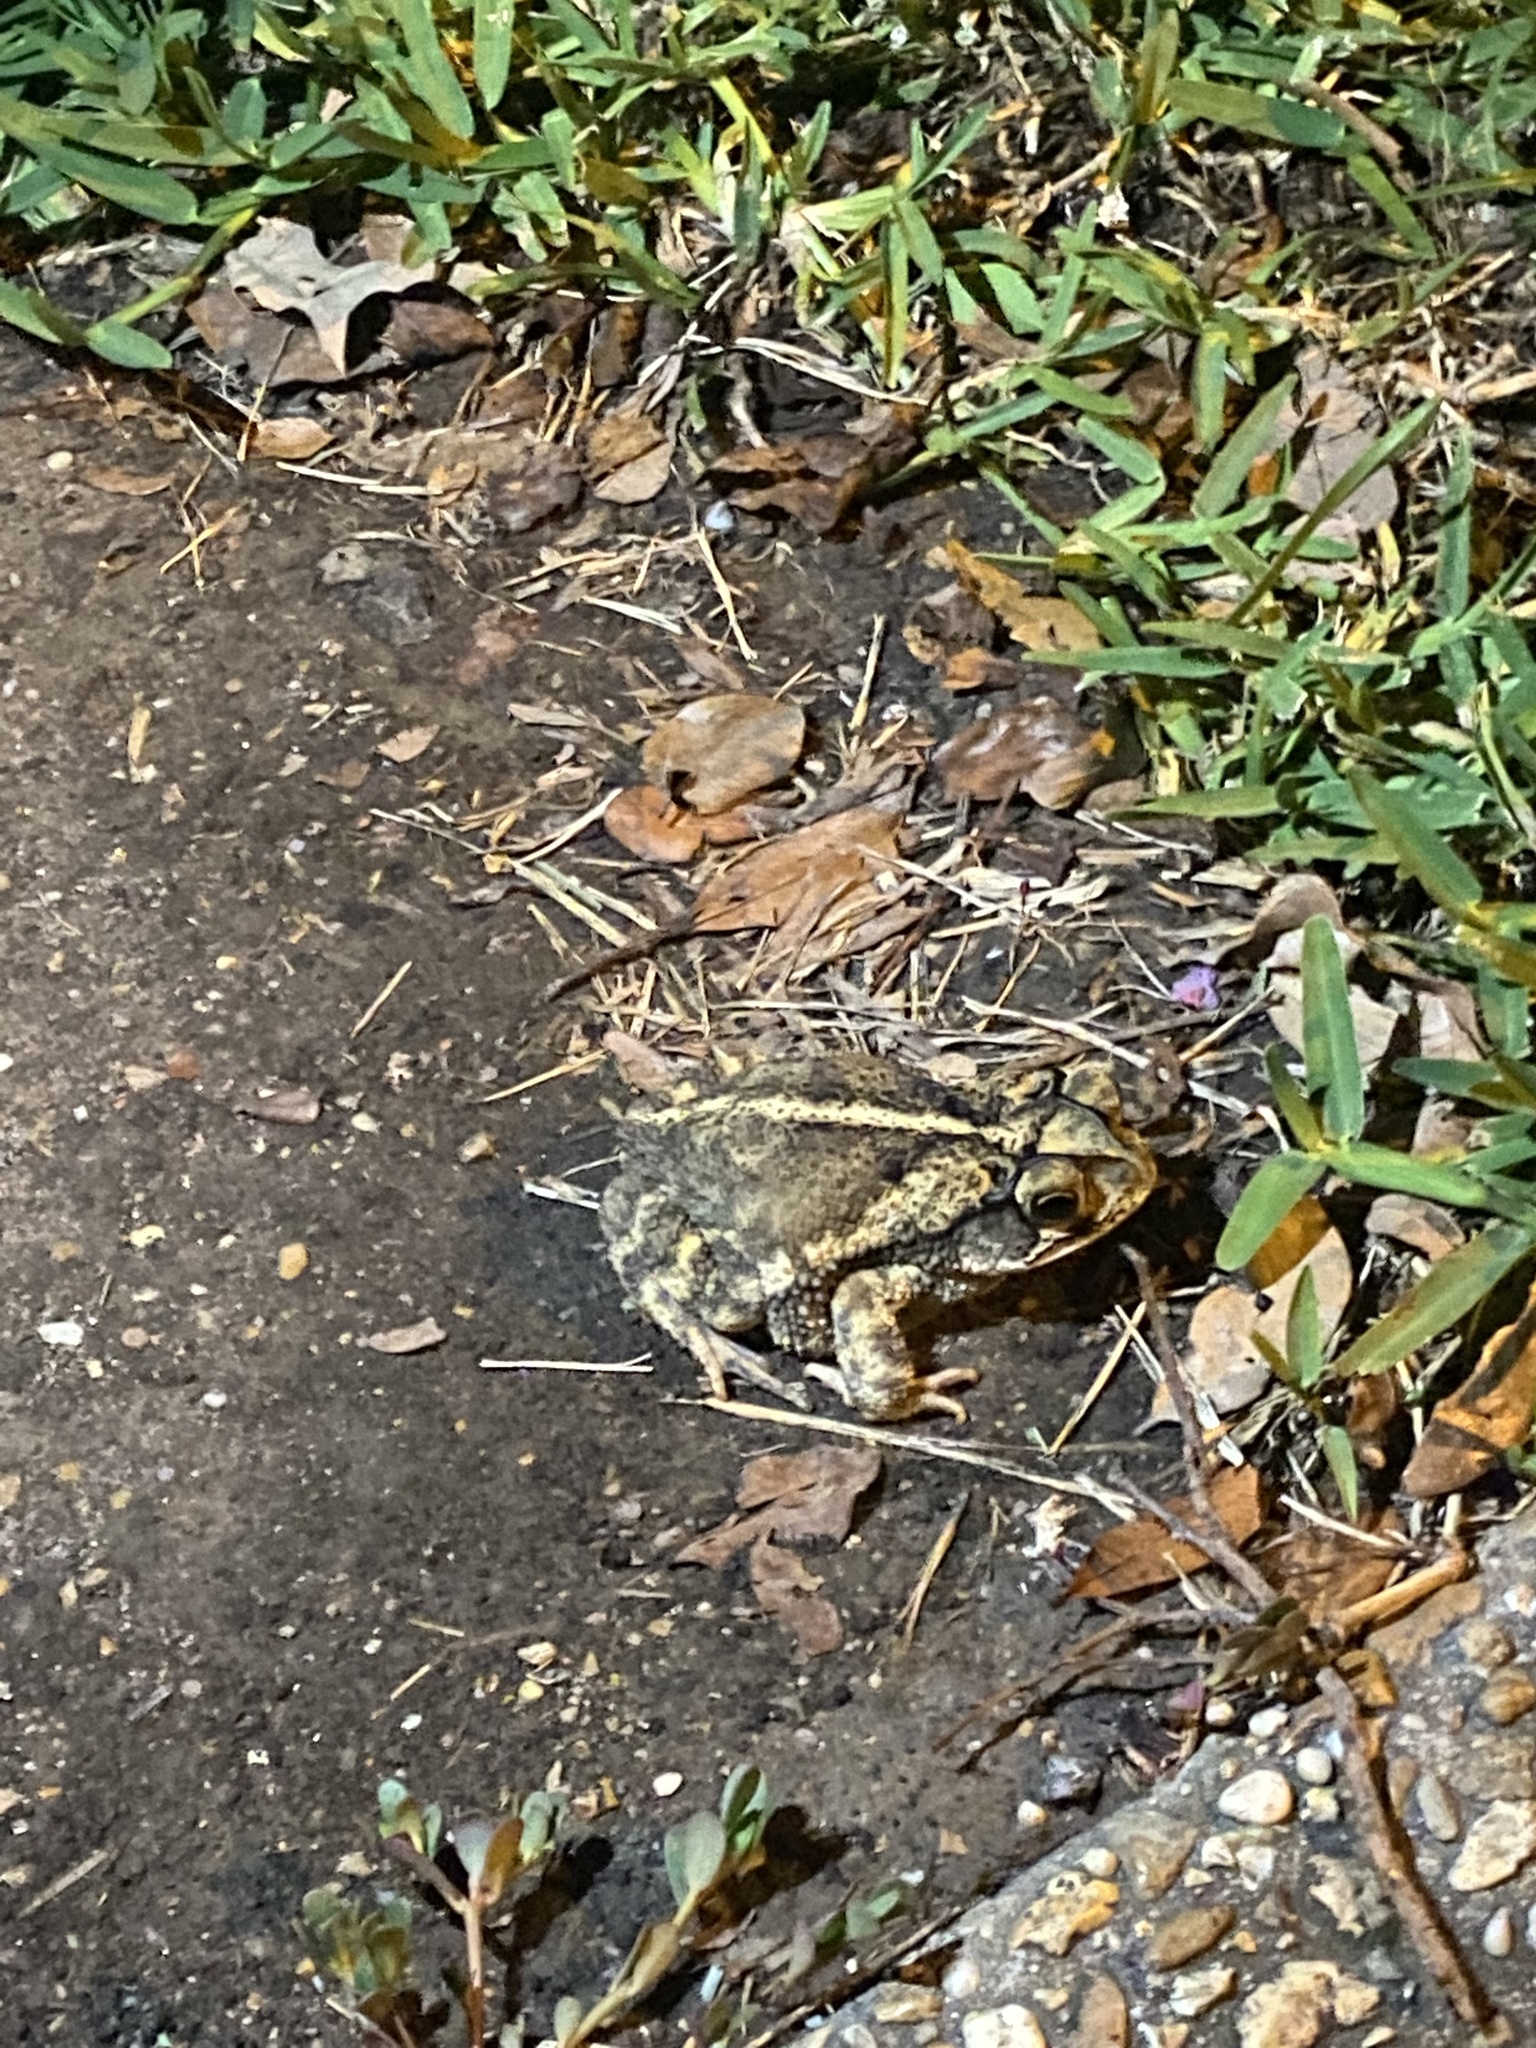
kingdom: Animalia
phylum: Chordata
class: Amphibia
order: Anura
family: Bufonidae
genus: Incilius
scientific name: Incilius nebulifer
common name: Gulf coast toad
